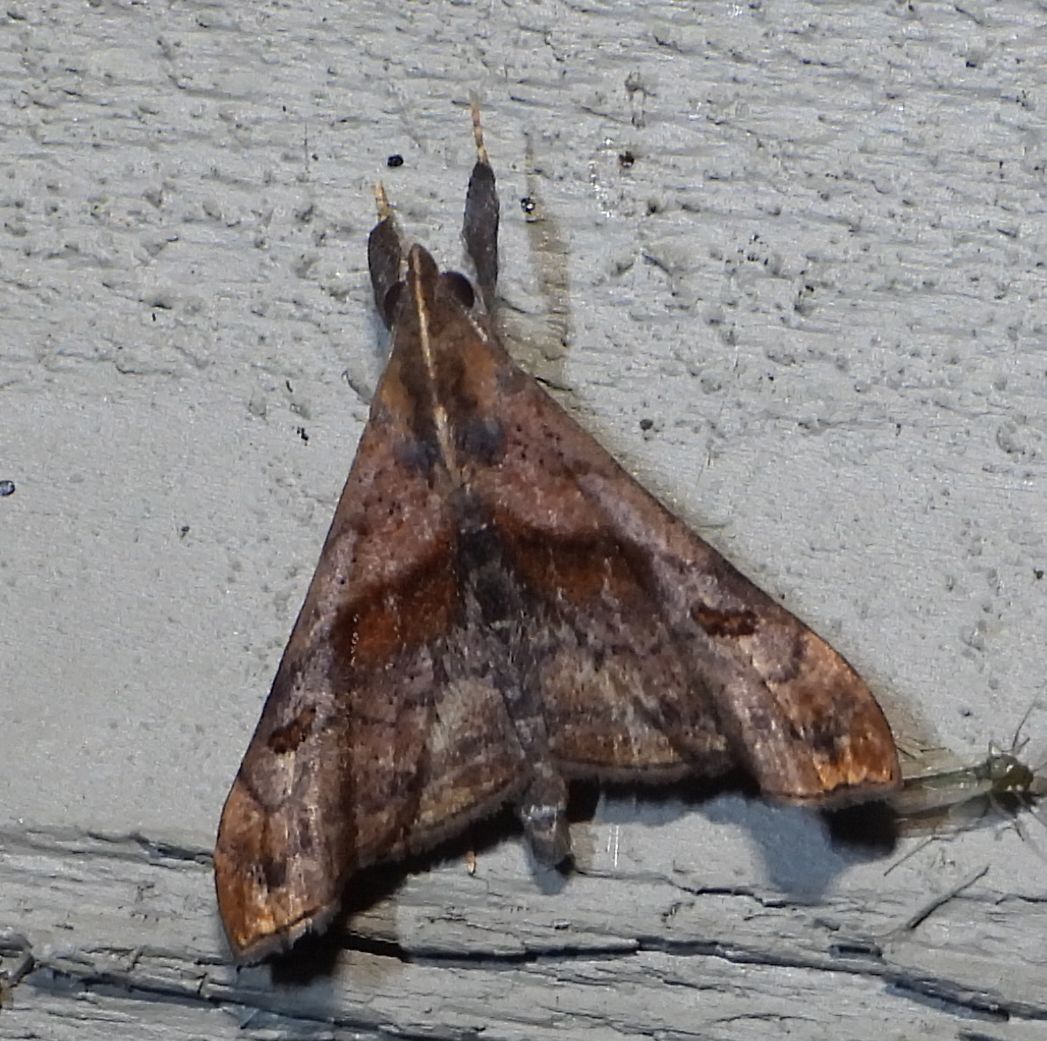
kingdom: Animalia
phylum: Arthropoda
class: Insecta
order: Lepidoptera
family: Erebidae
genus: Palthis
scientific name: Palthis angulalis
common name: Dark-spotted palthis moth
